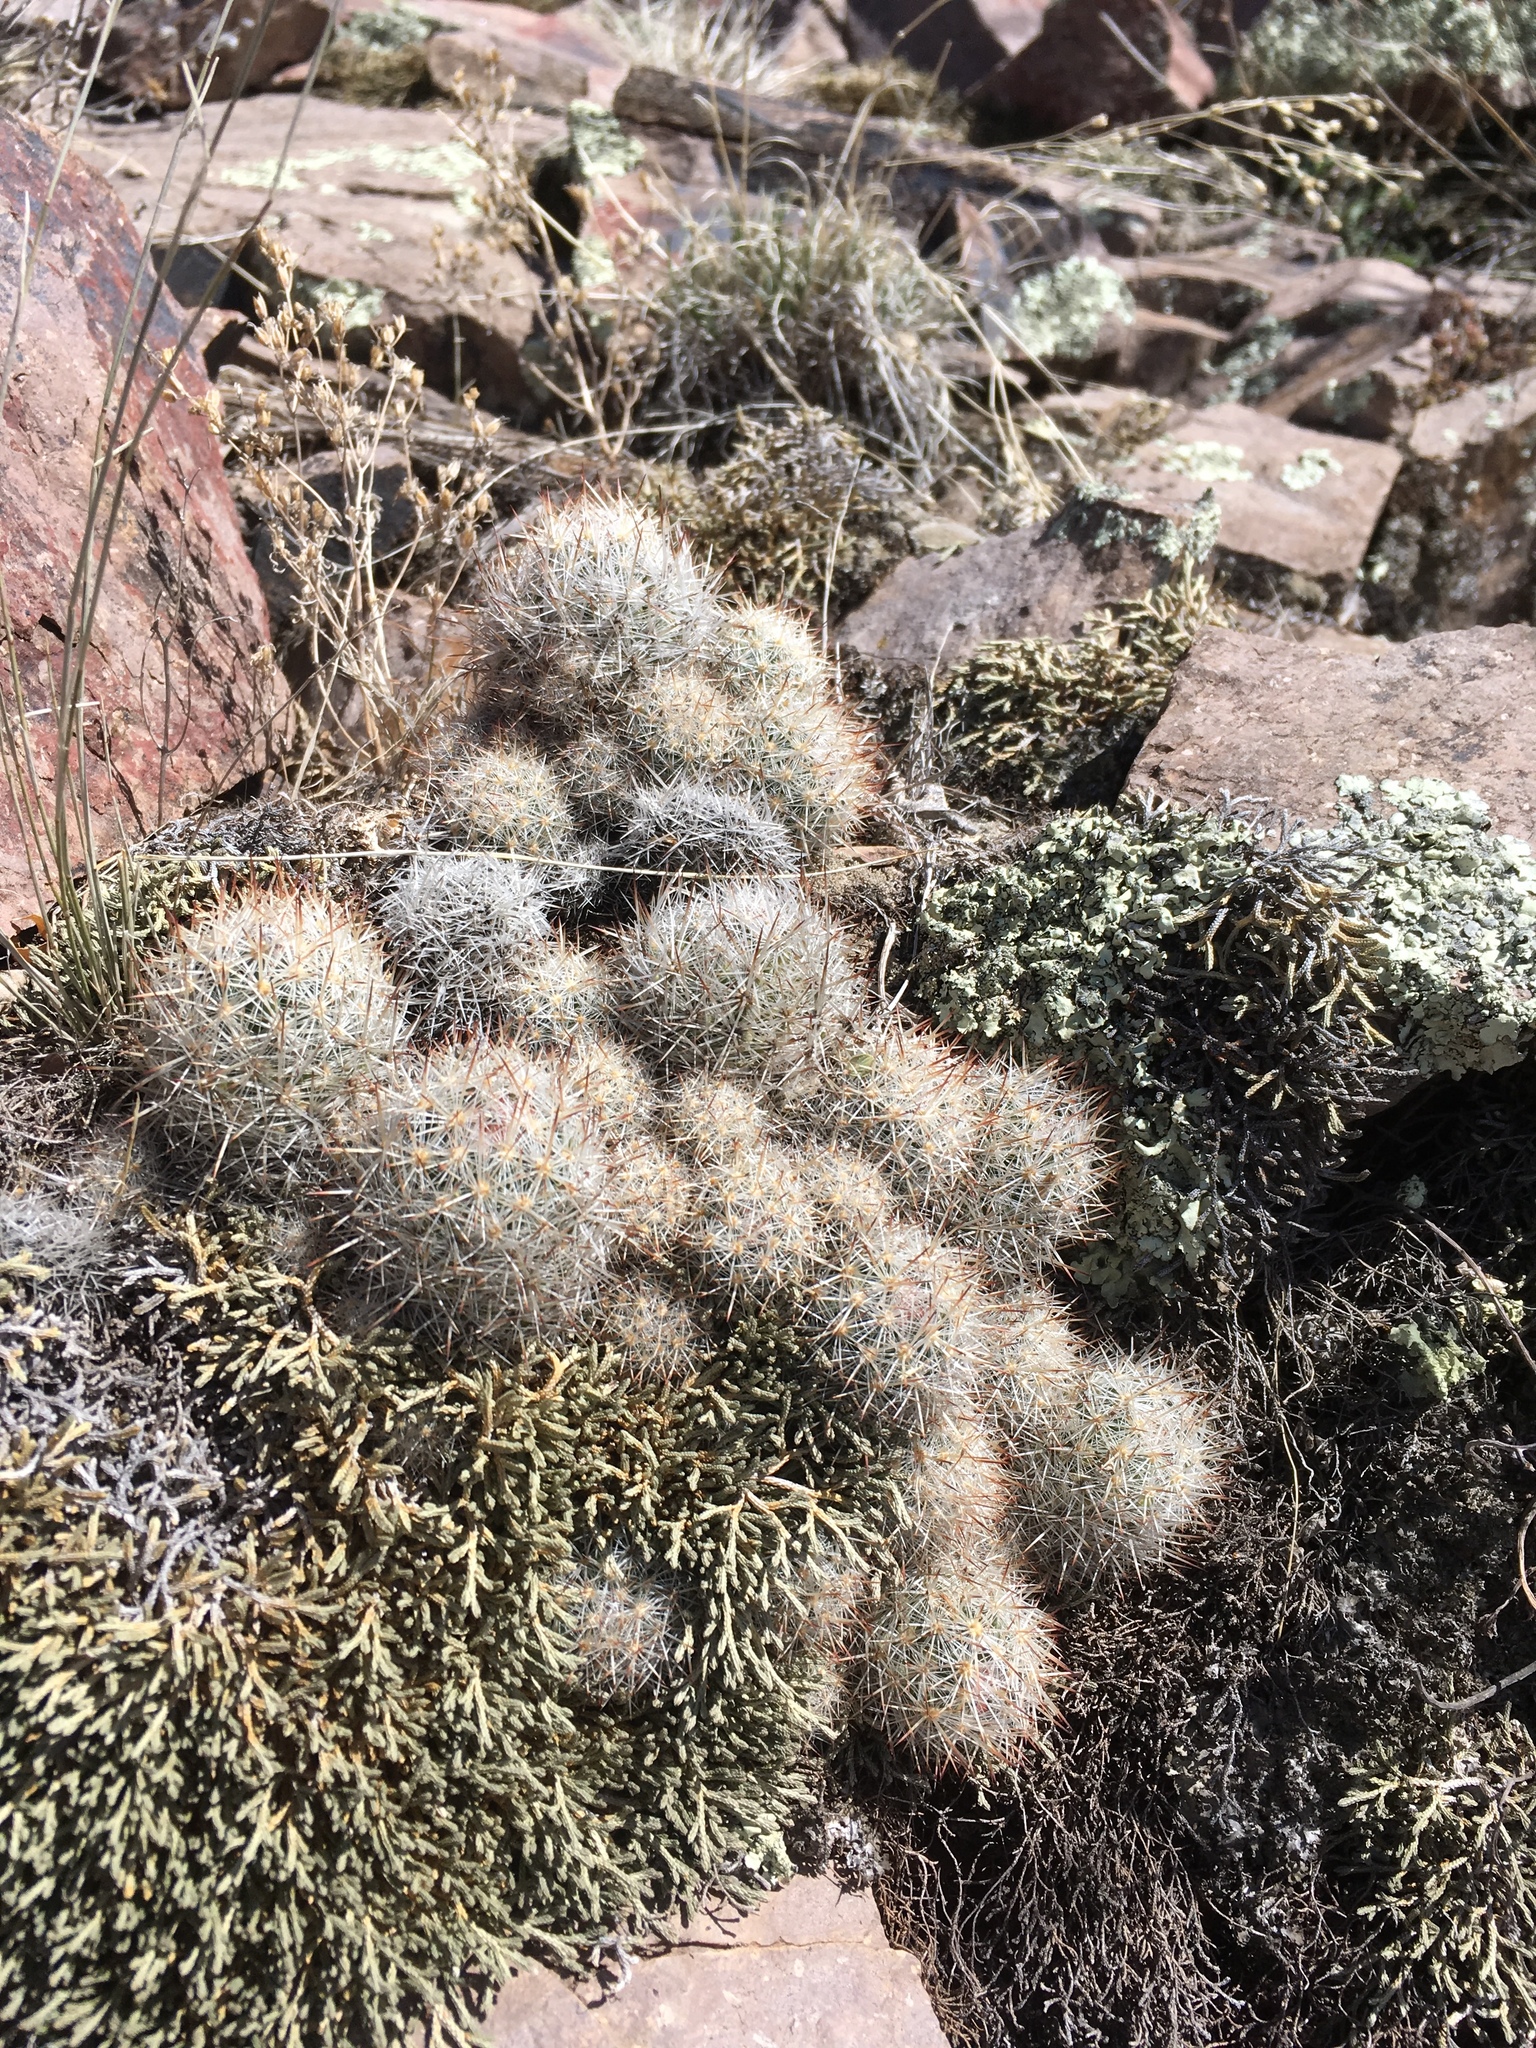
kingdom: Plantae
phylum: Tracheophyta
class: Magnoliopsida
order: Caryophyllales
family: Cactaceae
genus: Pelecyphora
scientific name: Pelecyphora sneedii
